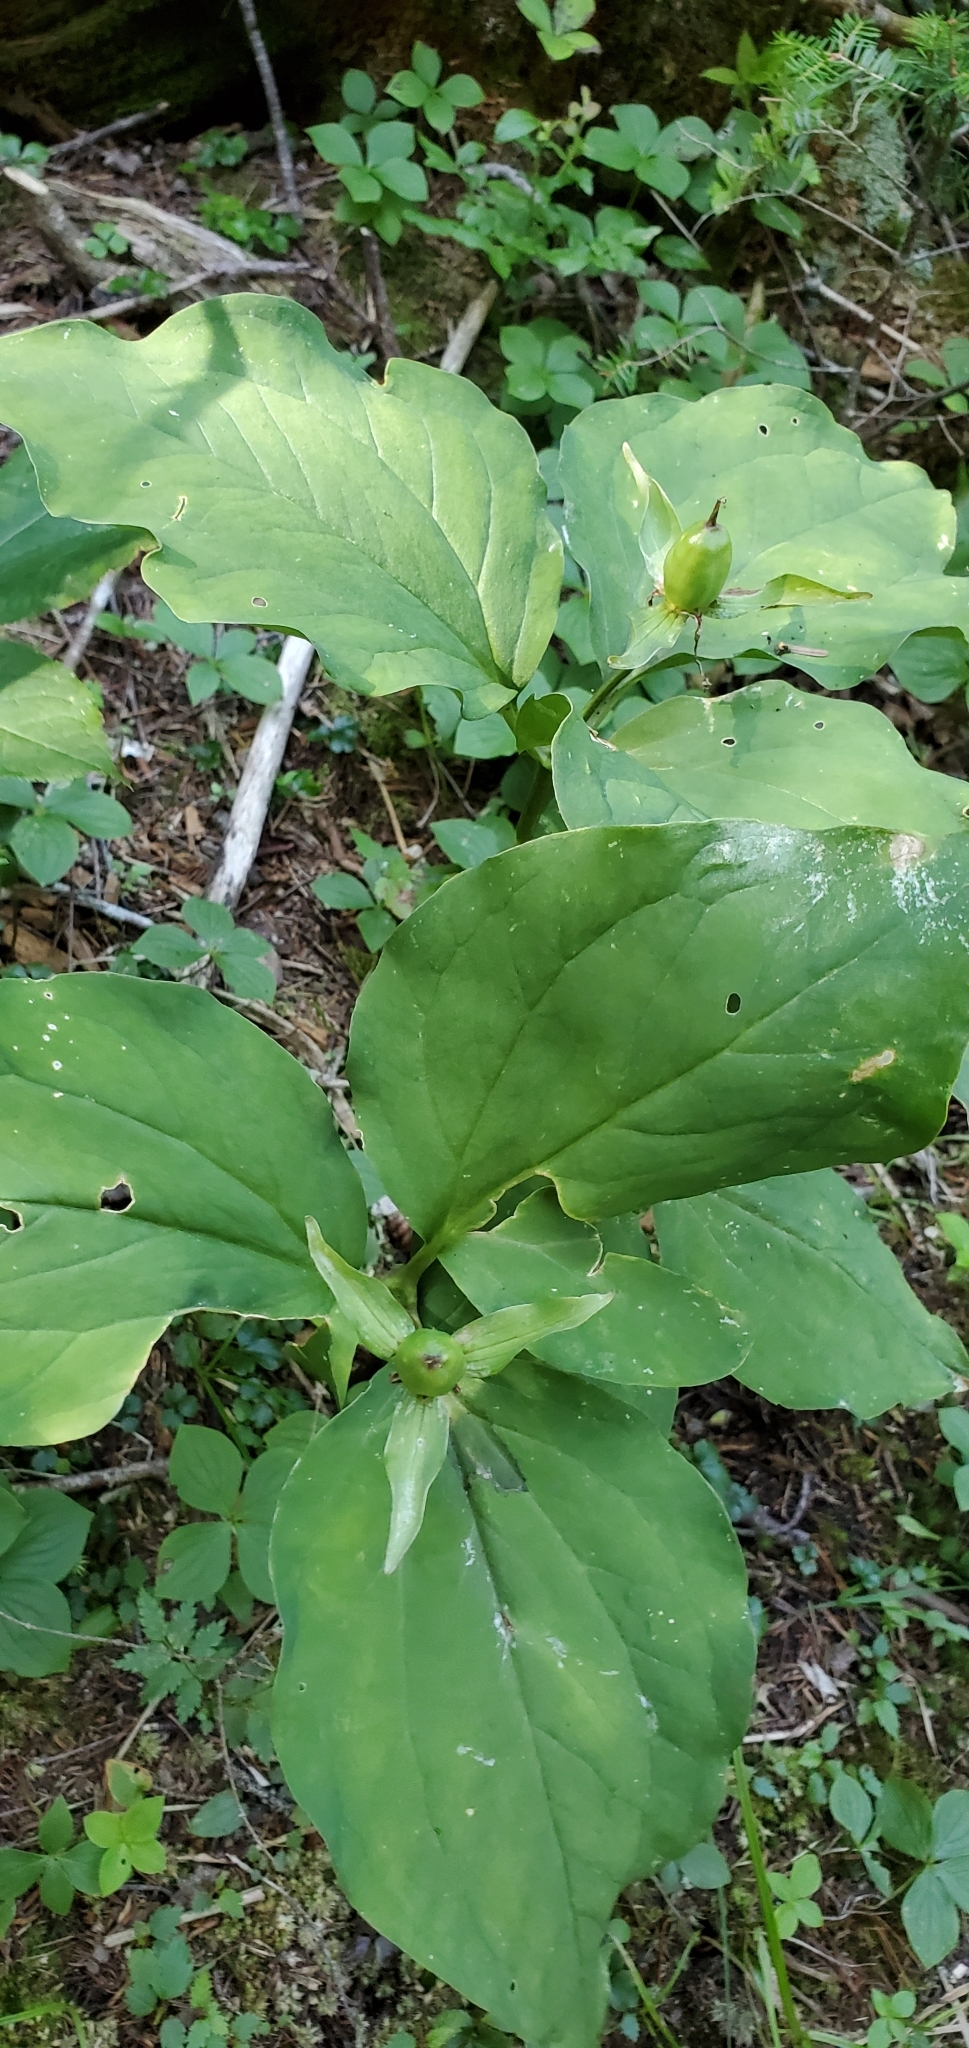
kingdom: Plantae
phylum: Tracheophyta
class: Liliopsida
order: Liliales
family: Melanthiaceae
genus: Trillium
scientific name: Trillium undulatum
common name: Paint trillium
